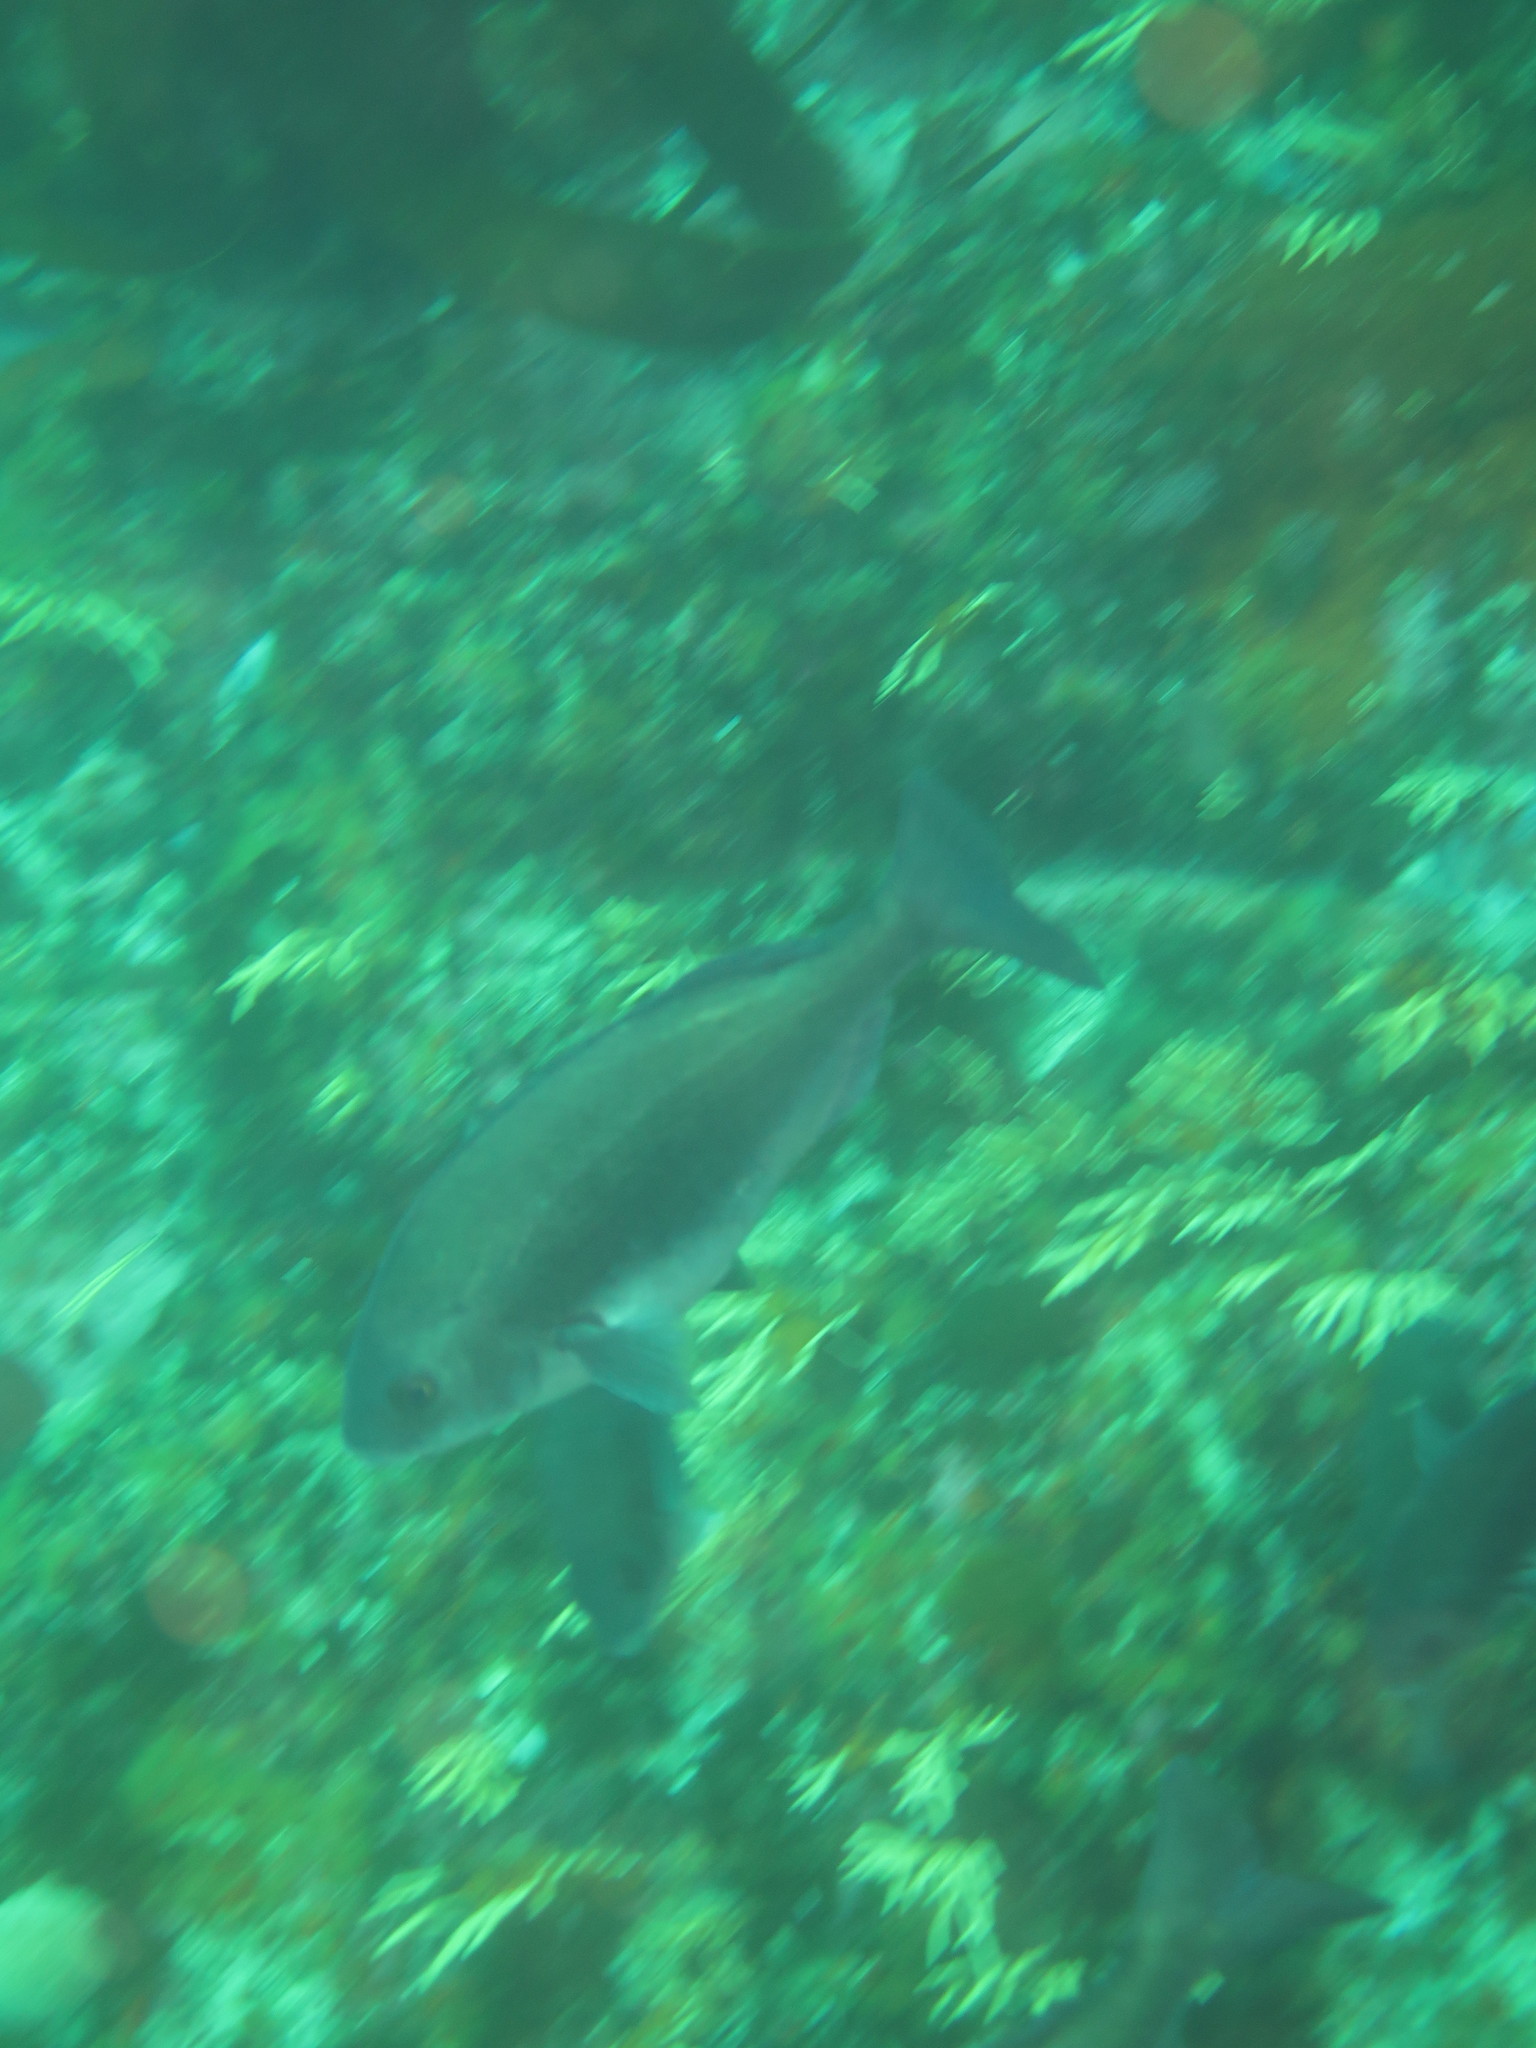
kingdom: Animalia
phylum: Chordata
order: Perciformes
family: Sparidae
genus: Pachymetopon
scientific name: Pachymetopon blochii
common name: Hottentot
